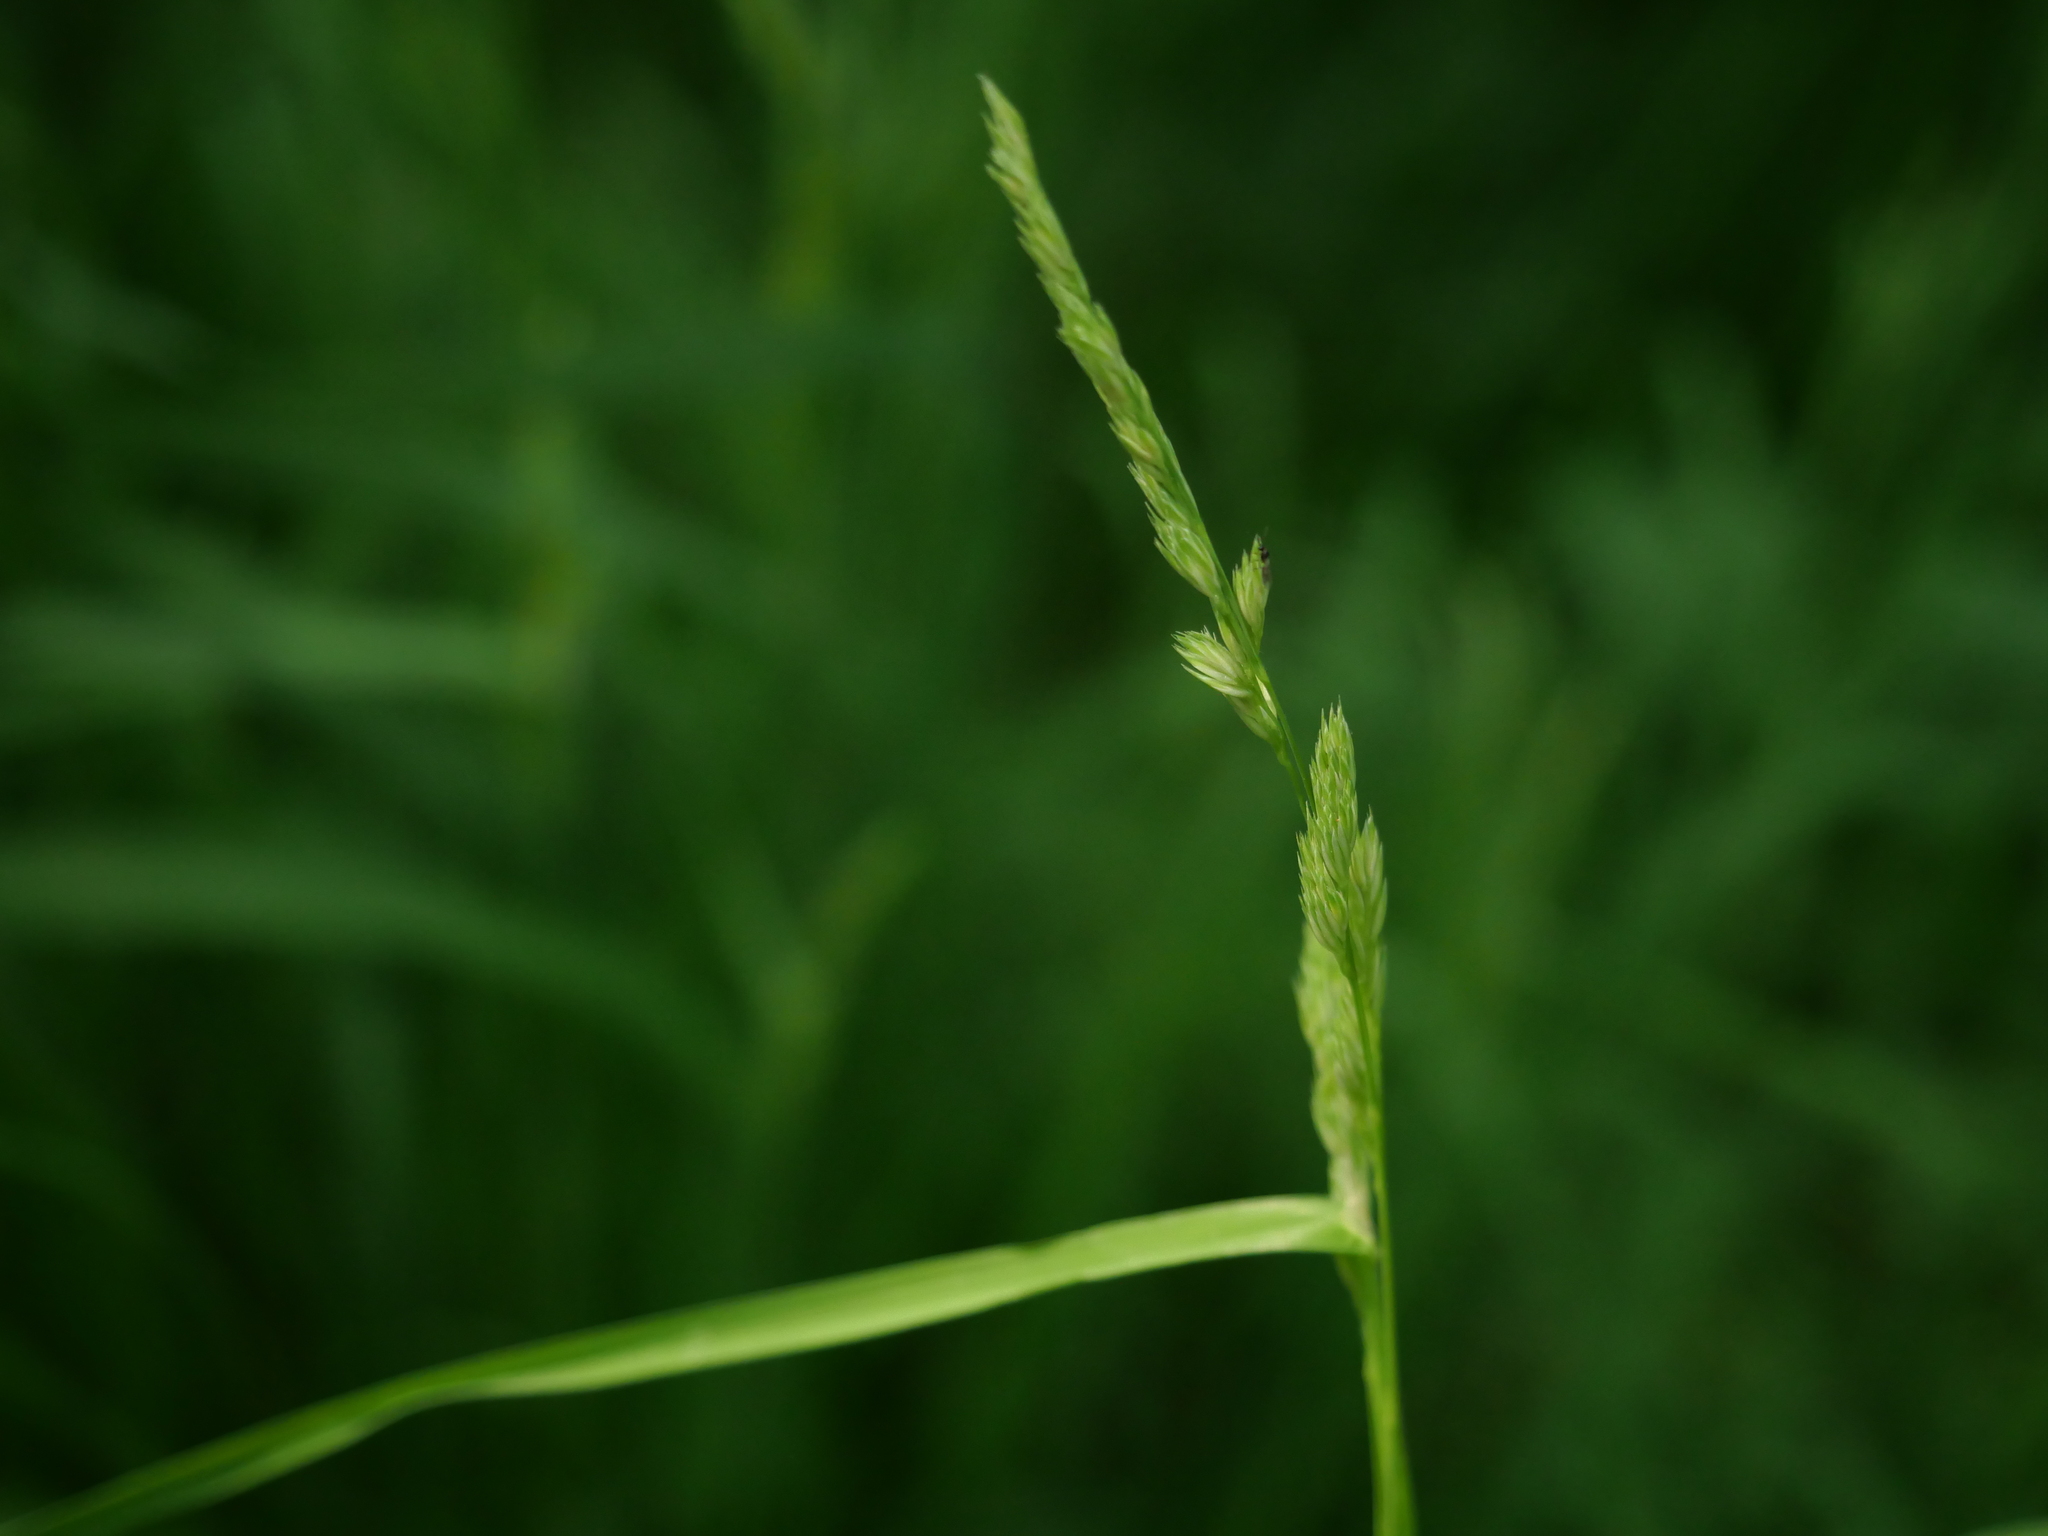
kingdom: Plantae
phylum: Tracheophyta
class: Liliopsida
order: Poales
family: Poaceae
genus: Dactylis
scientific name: Dactylis glomerata
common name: Orchardgrass
